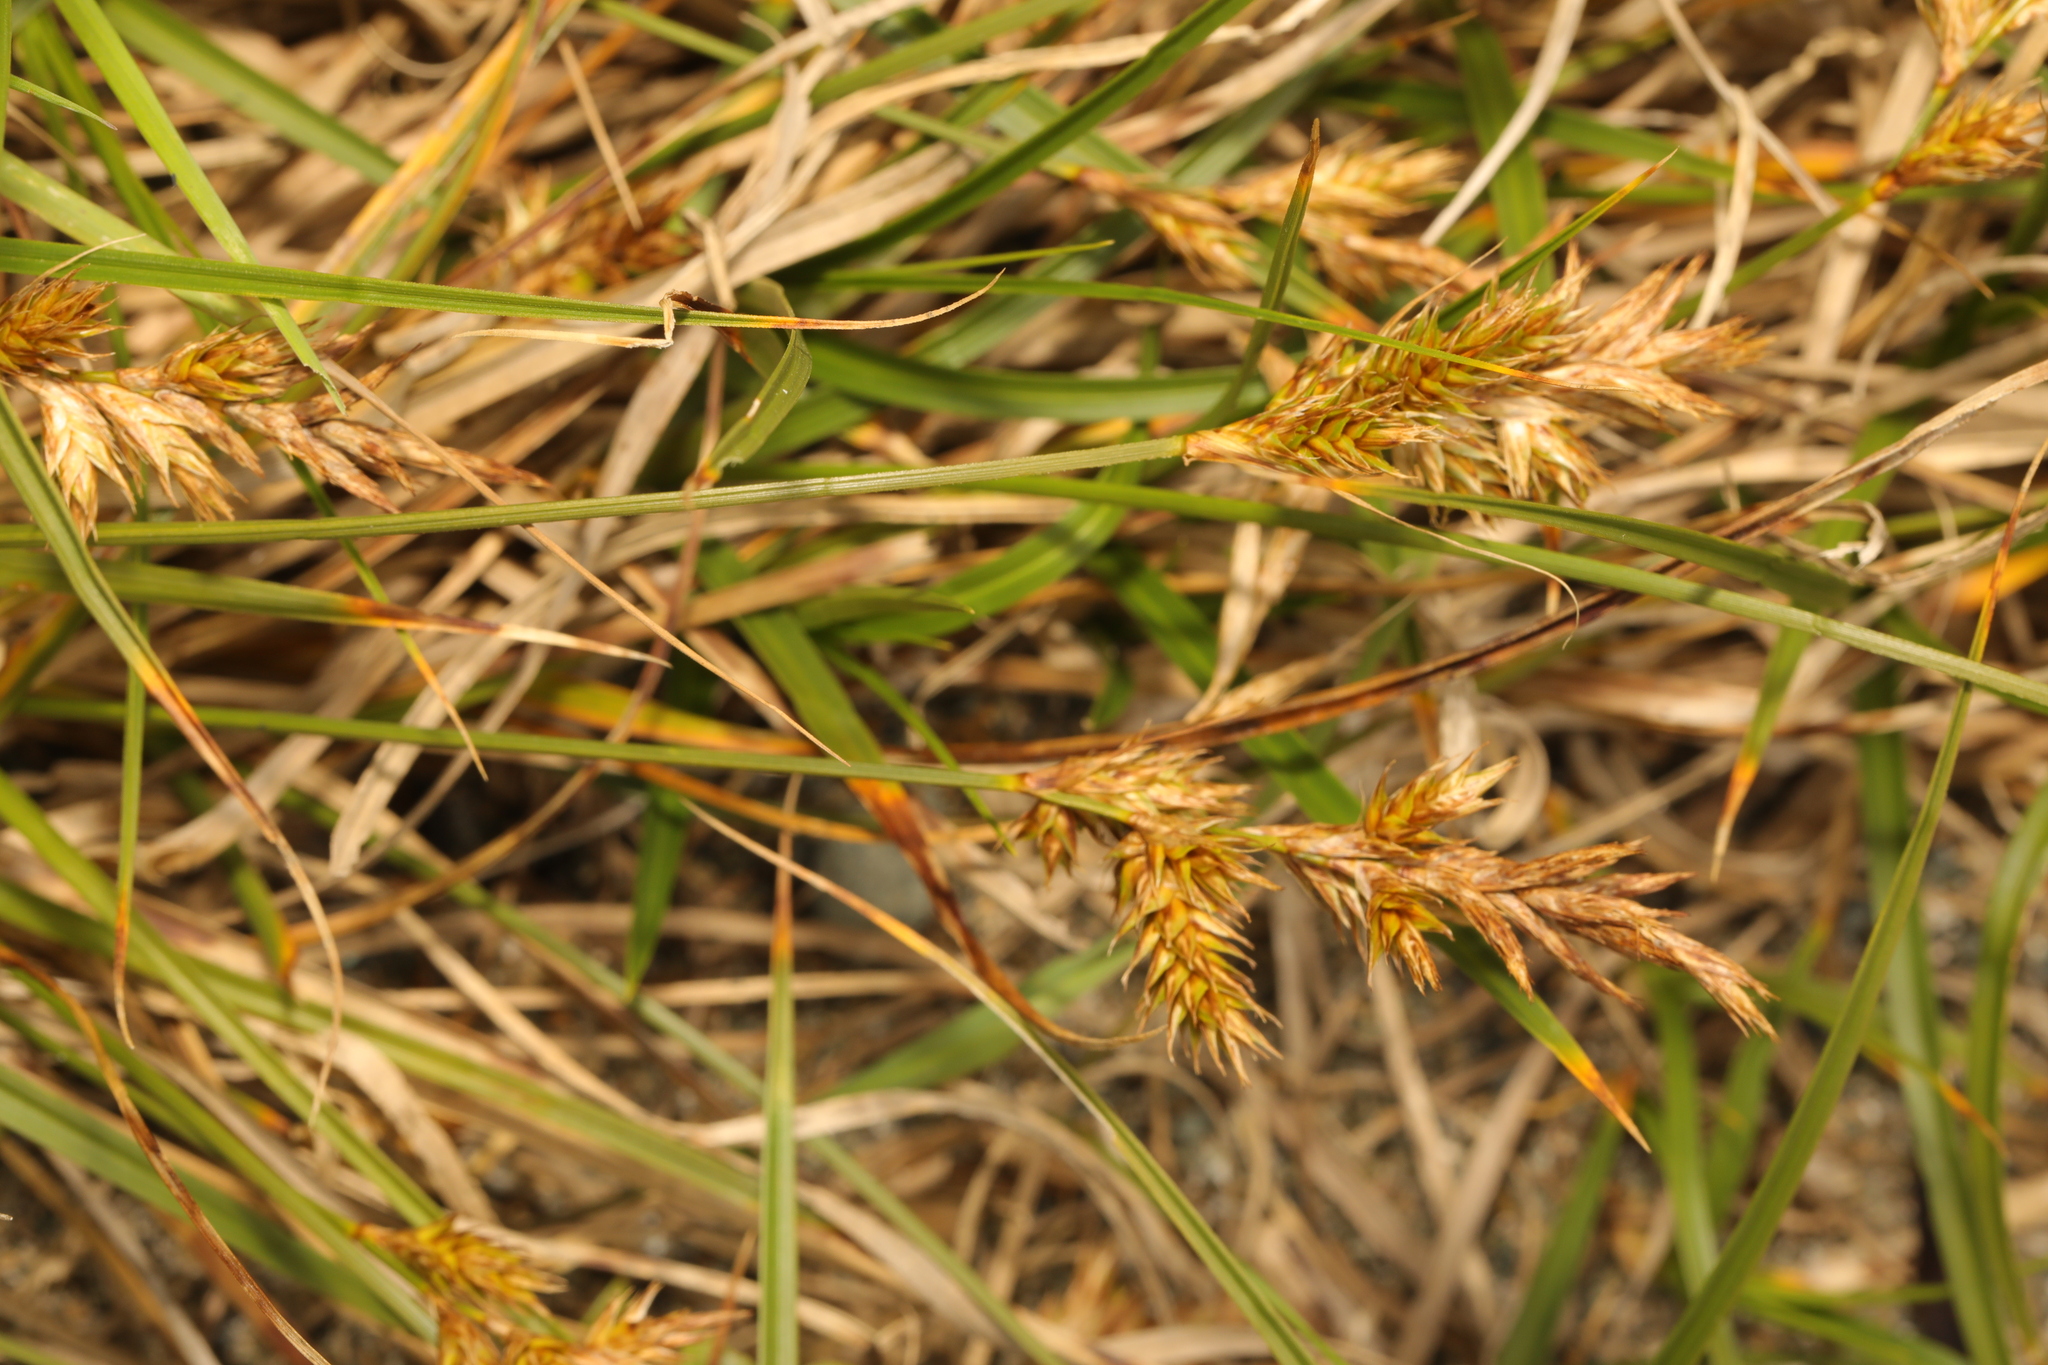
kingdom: Plantae
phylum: Tracheophyta
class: Liliopsida
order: Poales
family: Cyperaceae
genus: Carex
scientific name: Carex arenaria
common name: Sand sedge
